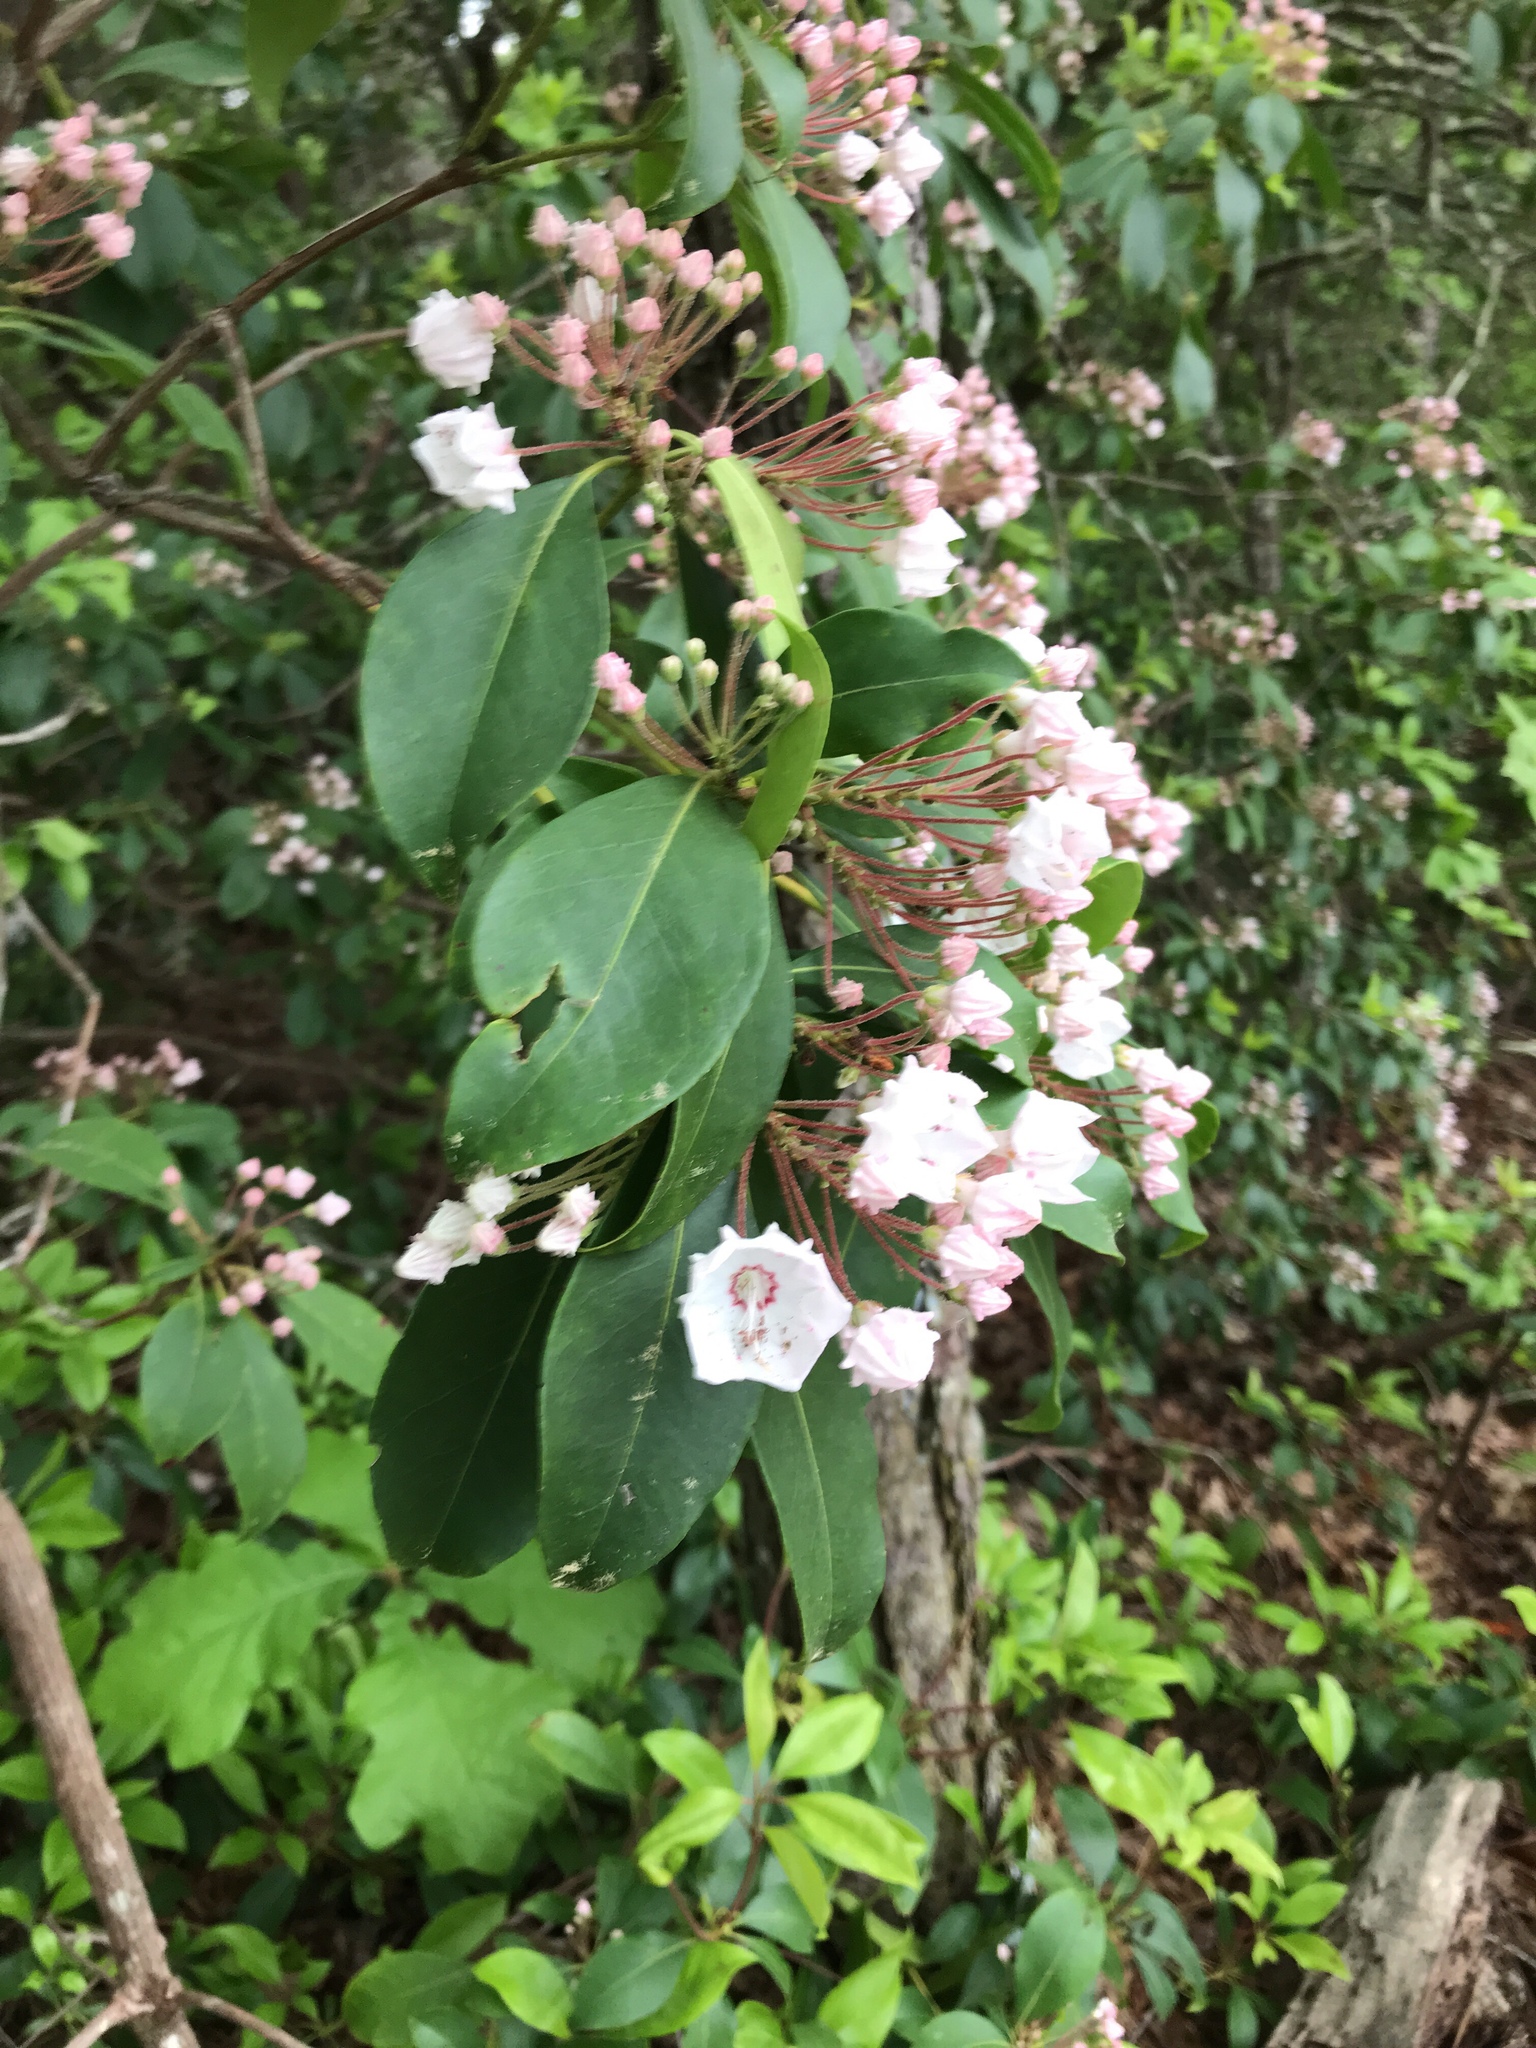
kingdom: Plantae
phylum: Tracheophyta
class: Magnoliopsida
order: Ericales
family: Ericaceae
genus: Kalmia
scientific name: Kalmia latifolia
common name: Mountain-laurel
